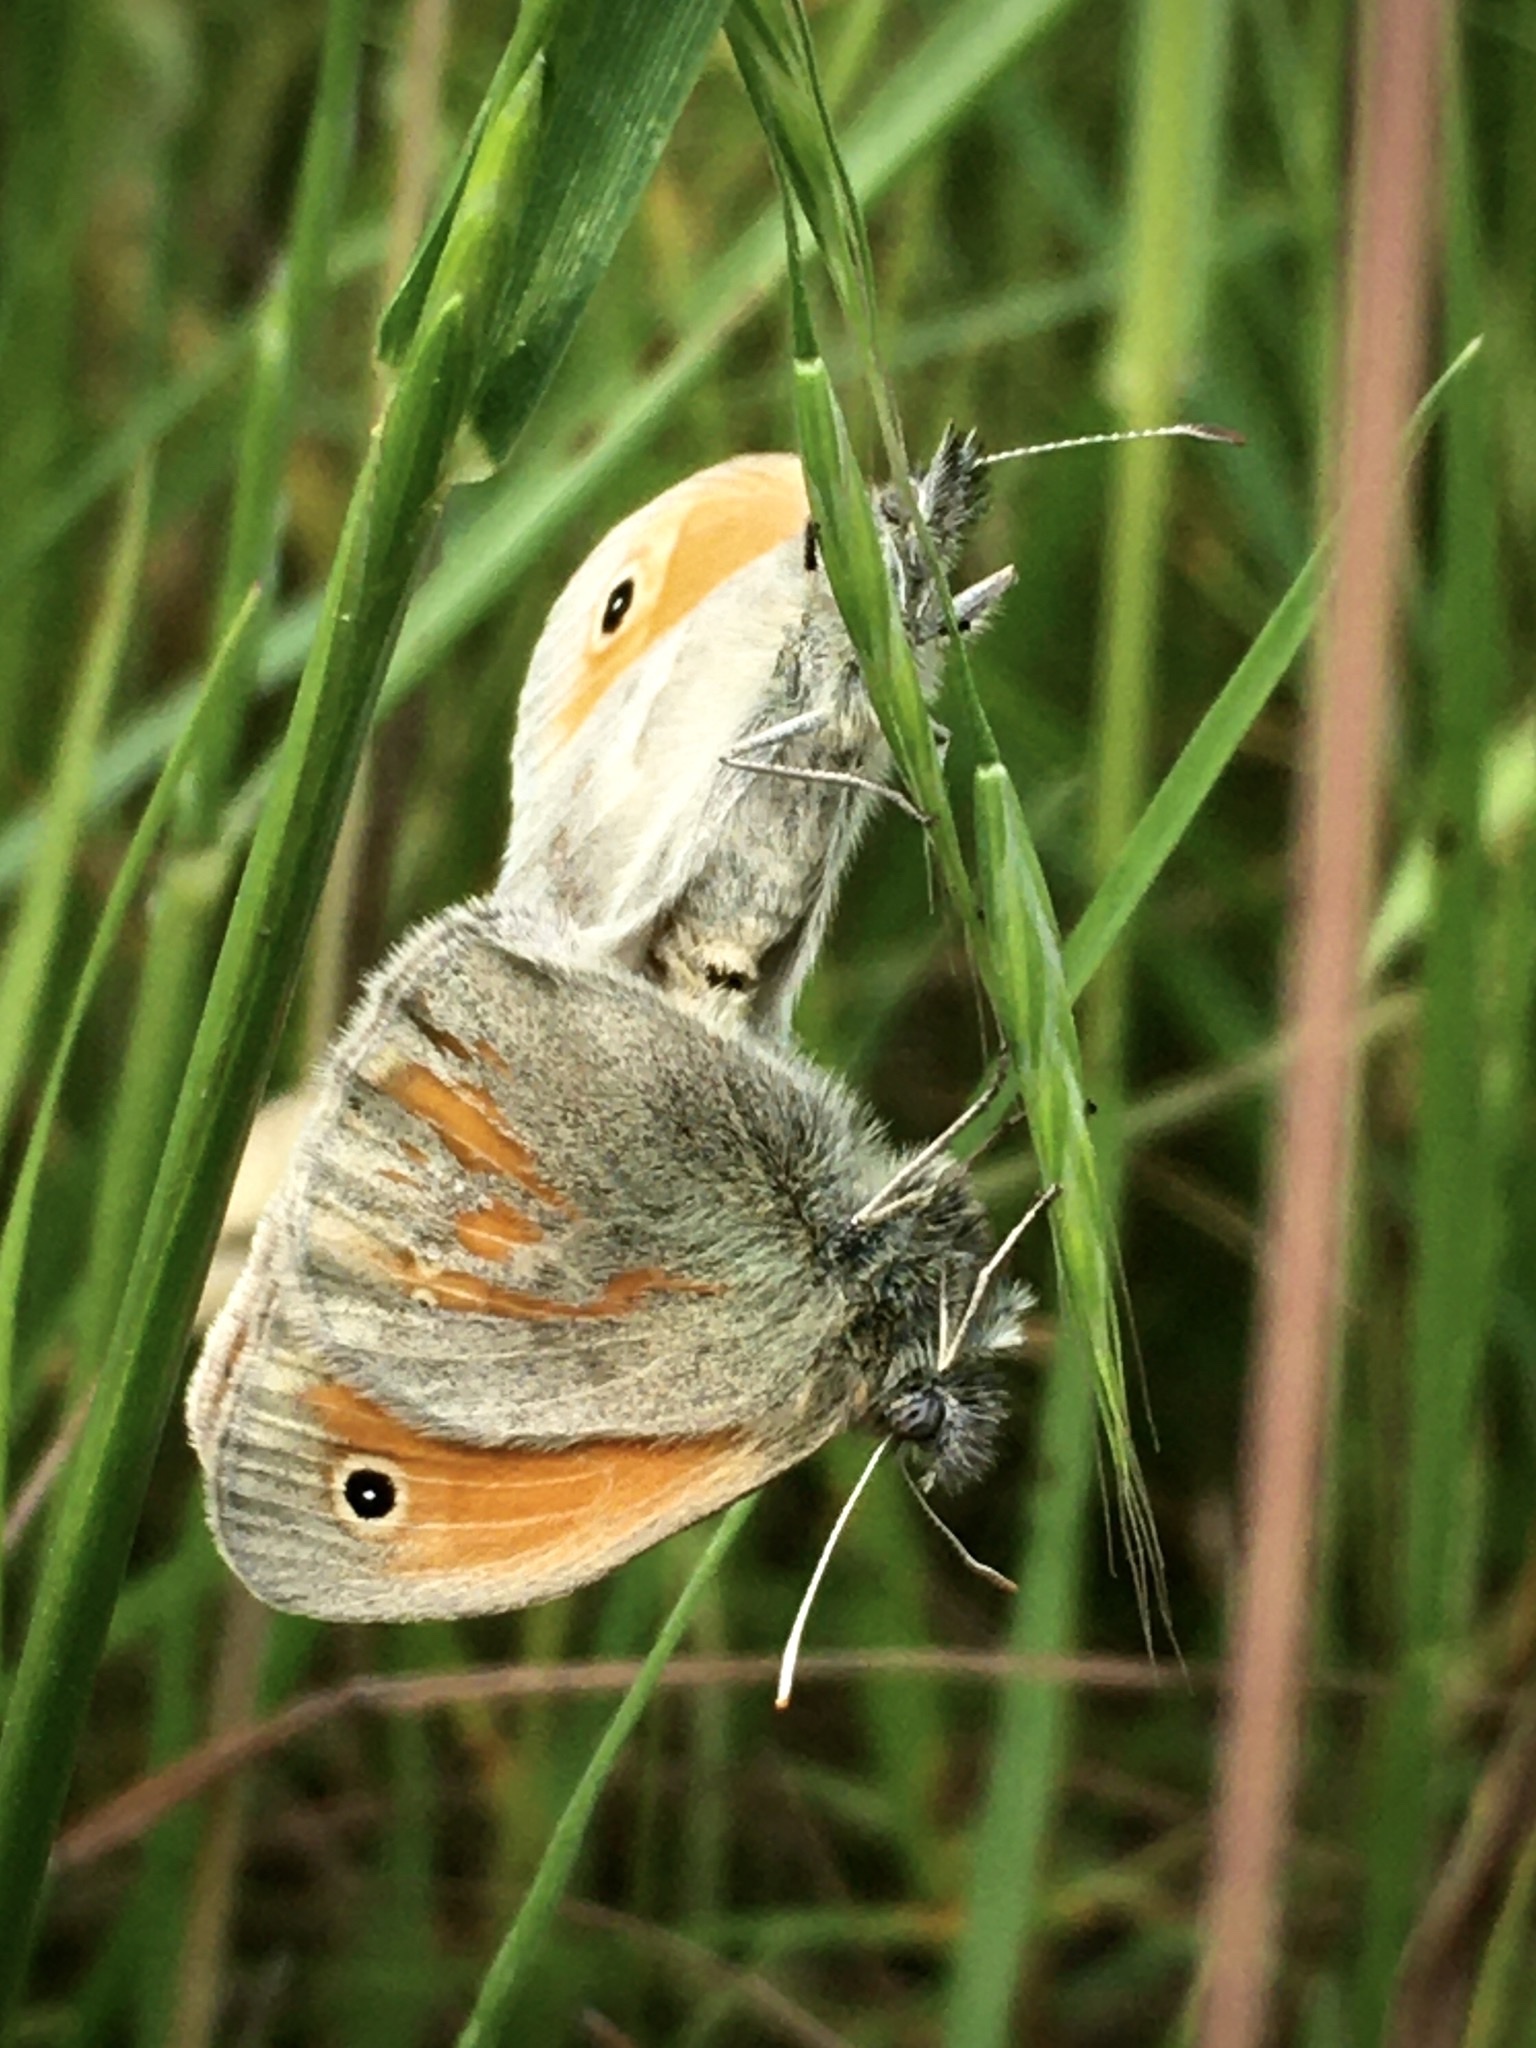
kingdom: Animalia
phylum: Arthropoda
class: Insecta
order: Lepidoptera
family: Nymphalidae
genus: Coenonympha
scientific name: Coenonympha pamphilus
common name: Small heath
